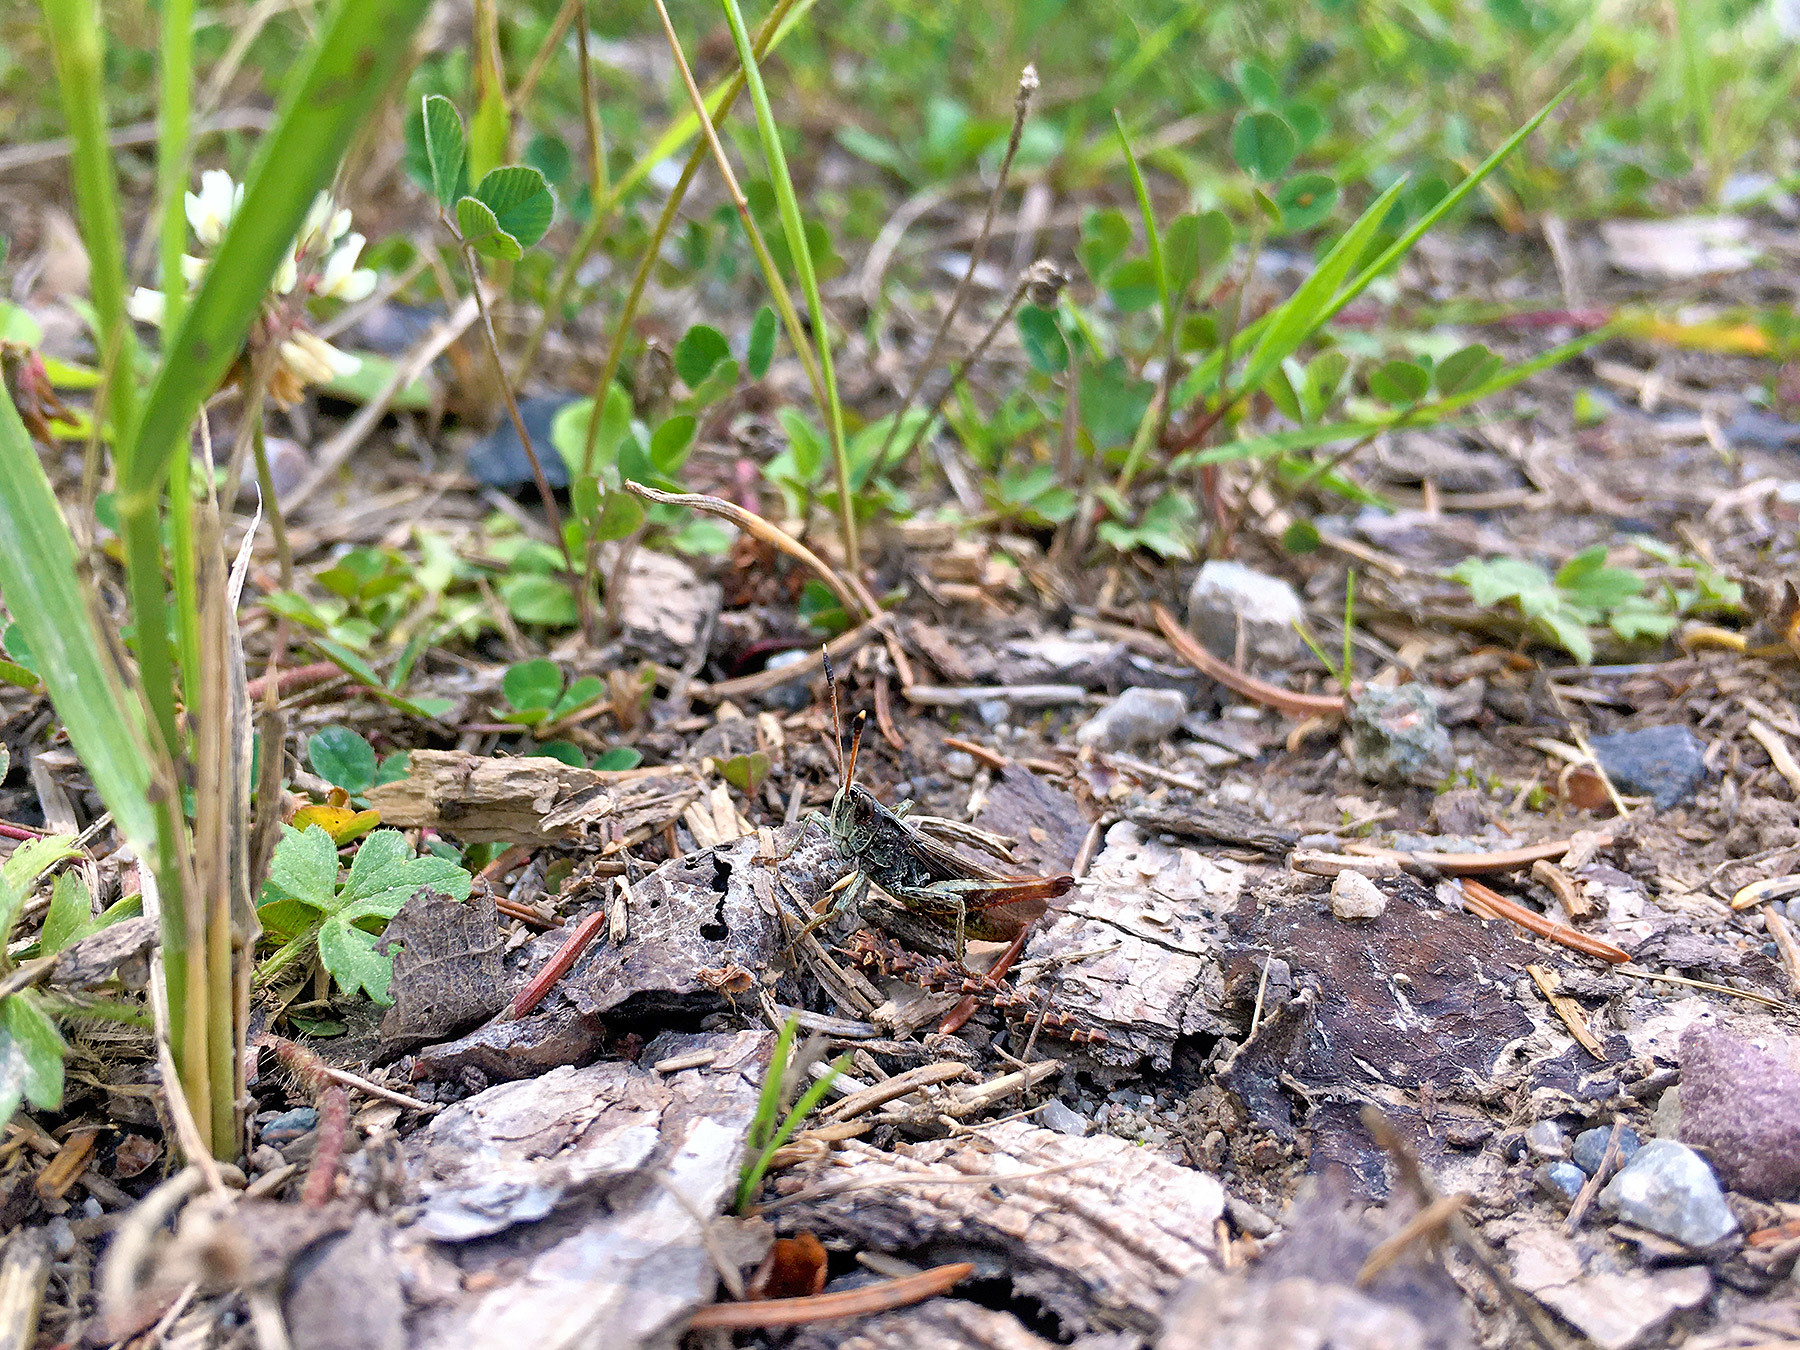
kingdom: Animalia
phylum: Arthropoda
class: Insecta
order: Orthoptera
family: Acrididae
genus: Gomphocerippus
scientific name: Gomphocerippus rufus
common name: Rufous grasshopper
